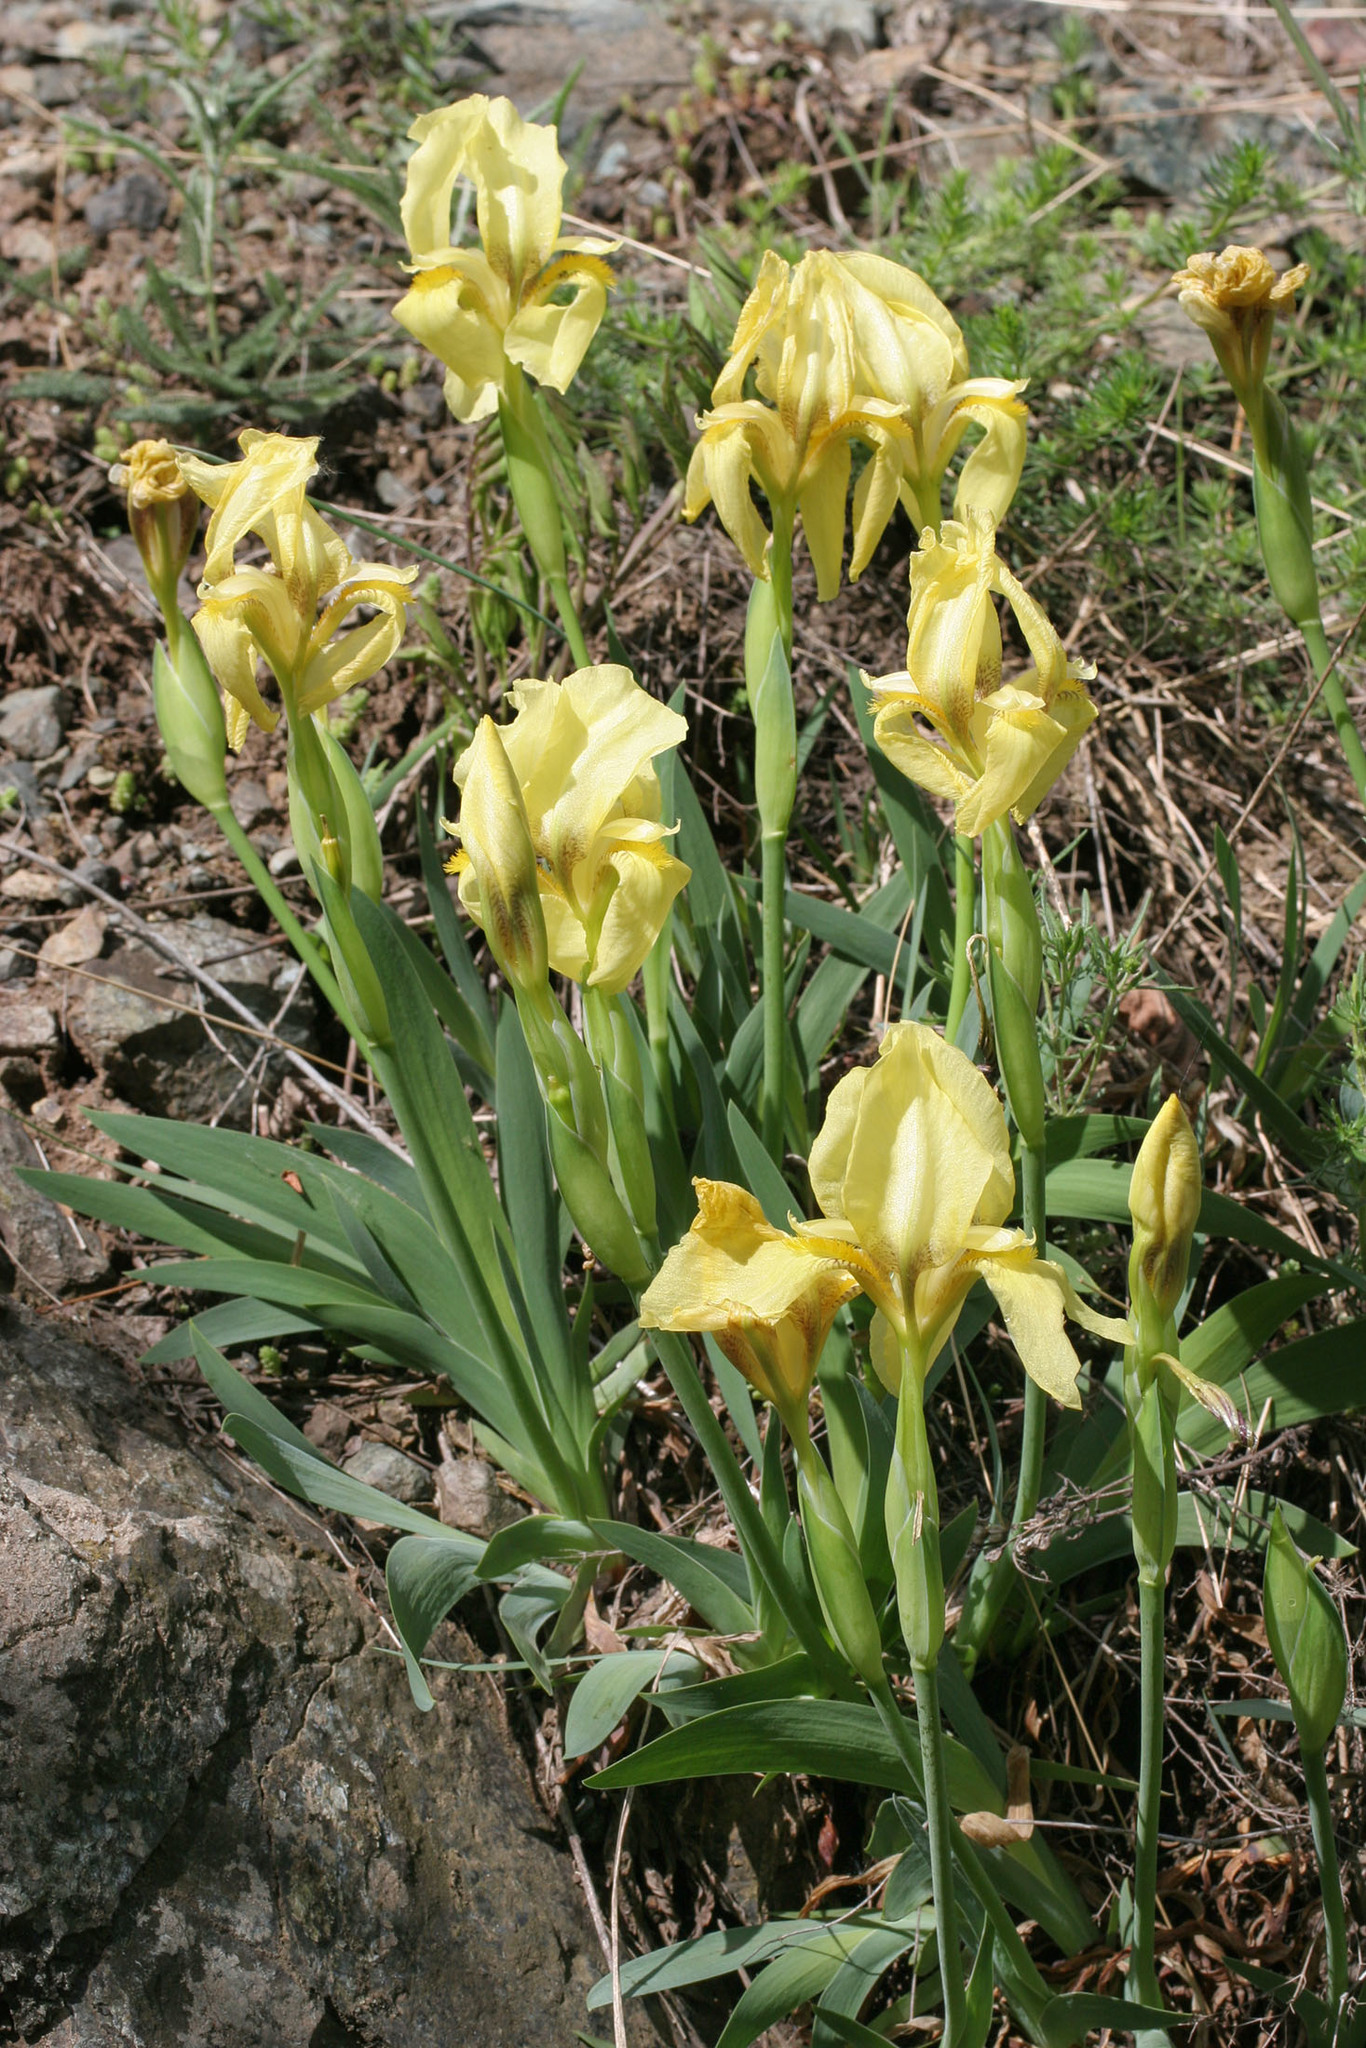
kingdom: Plantae
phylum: Tracheophyta
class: Liliopsida
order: Asparagales
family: Iridaceae
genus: Iris
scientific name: Iris reichenbachii
